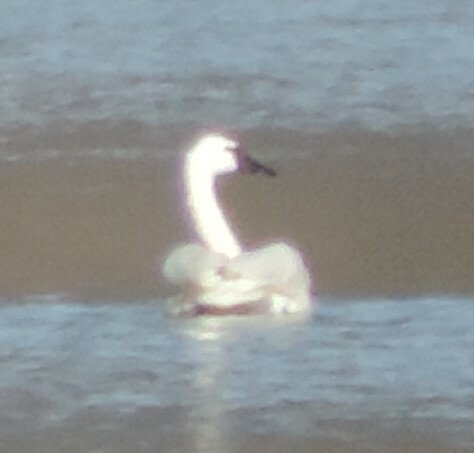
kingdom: Animalia
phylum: Chordata
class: Aves
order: Anseriformes
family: Anatidae
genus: Cygnus
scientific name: Cygnus buccinator
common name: Trumpeter swan
